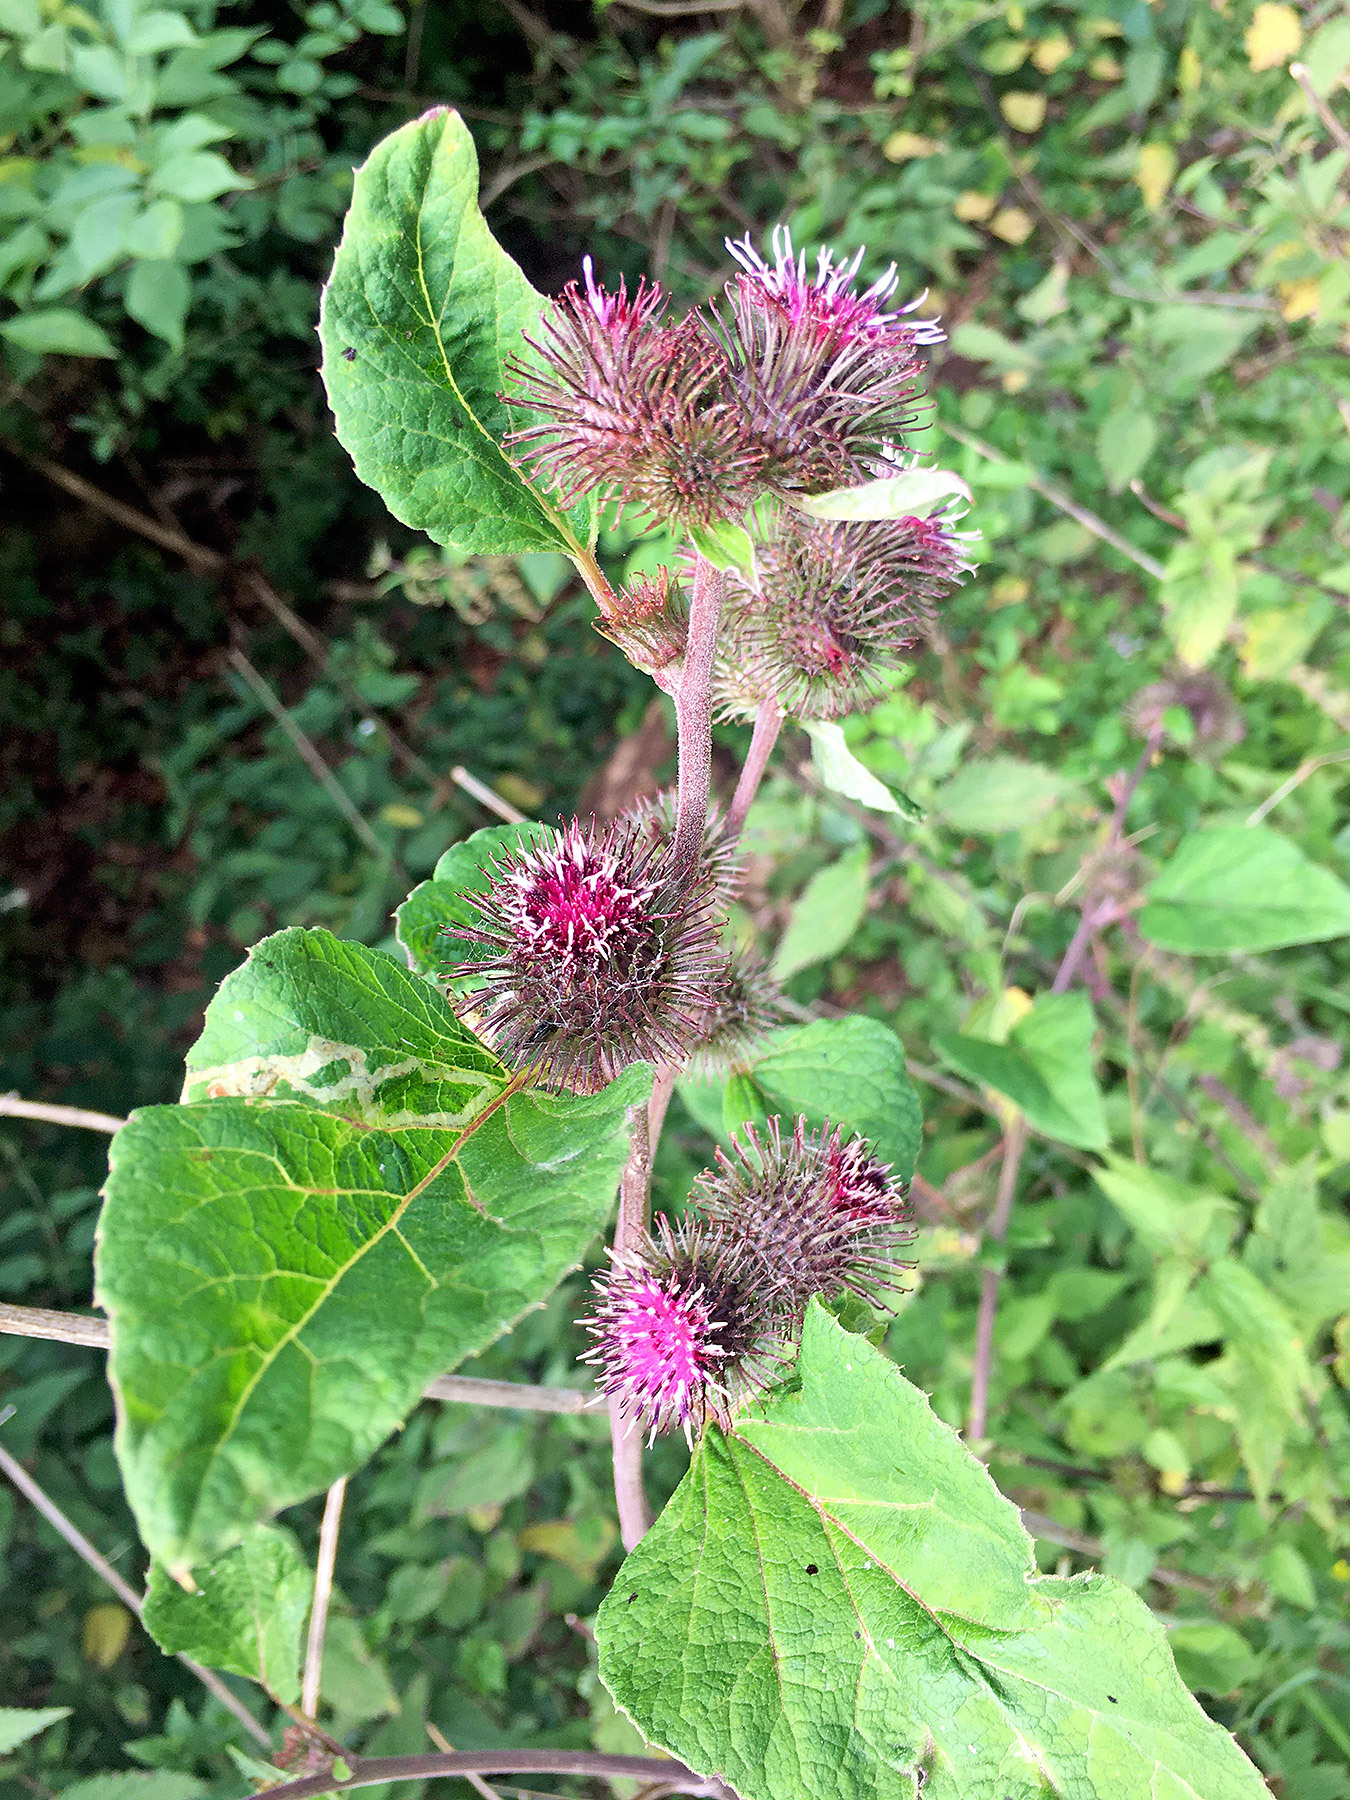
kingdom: Plantae
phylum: Tracheophyta
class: Magnoliopsida
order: Asterales
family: Asteraceae
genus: Arctium
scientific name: Arctium minus
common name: Lesser burdock
